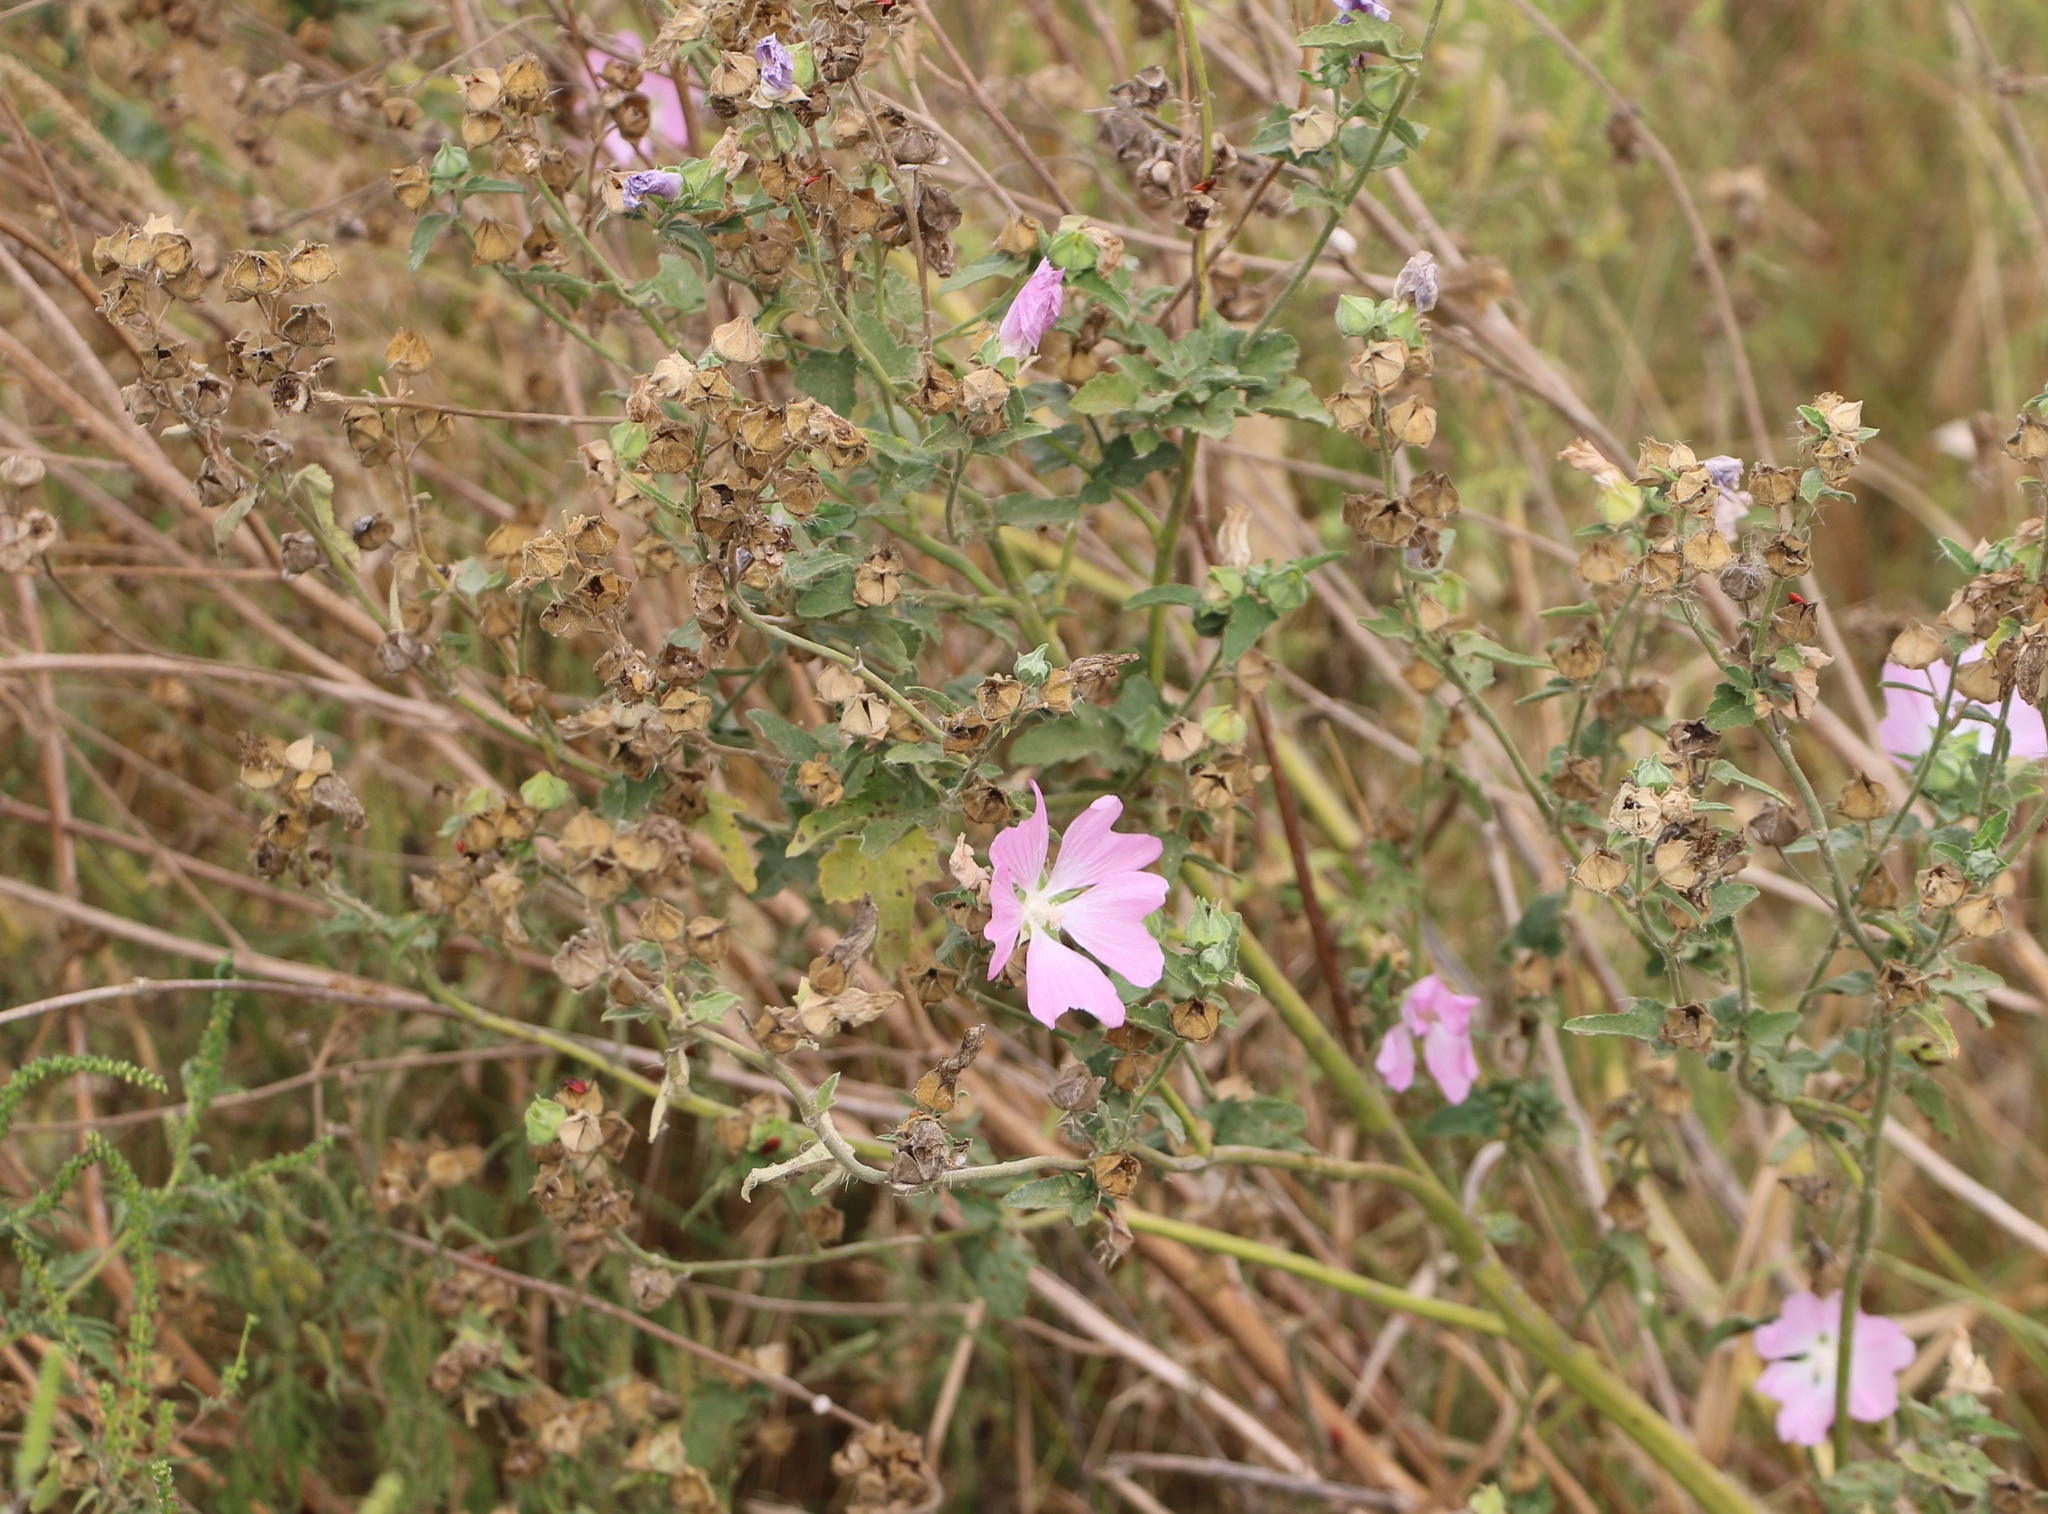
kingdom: Plantae
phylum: Tracheophyta
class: Magnoliopsida
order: Malvales
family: Malvaceae
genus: Malva
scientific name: Malva thuringiaca
